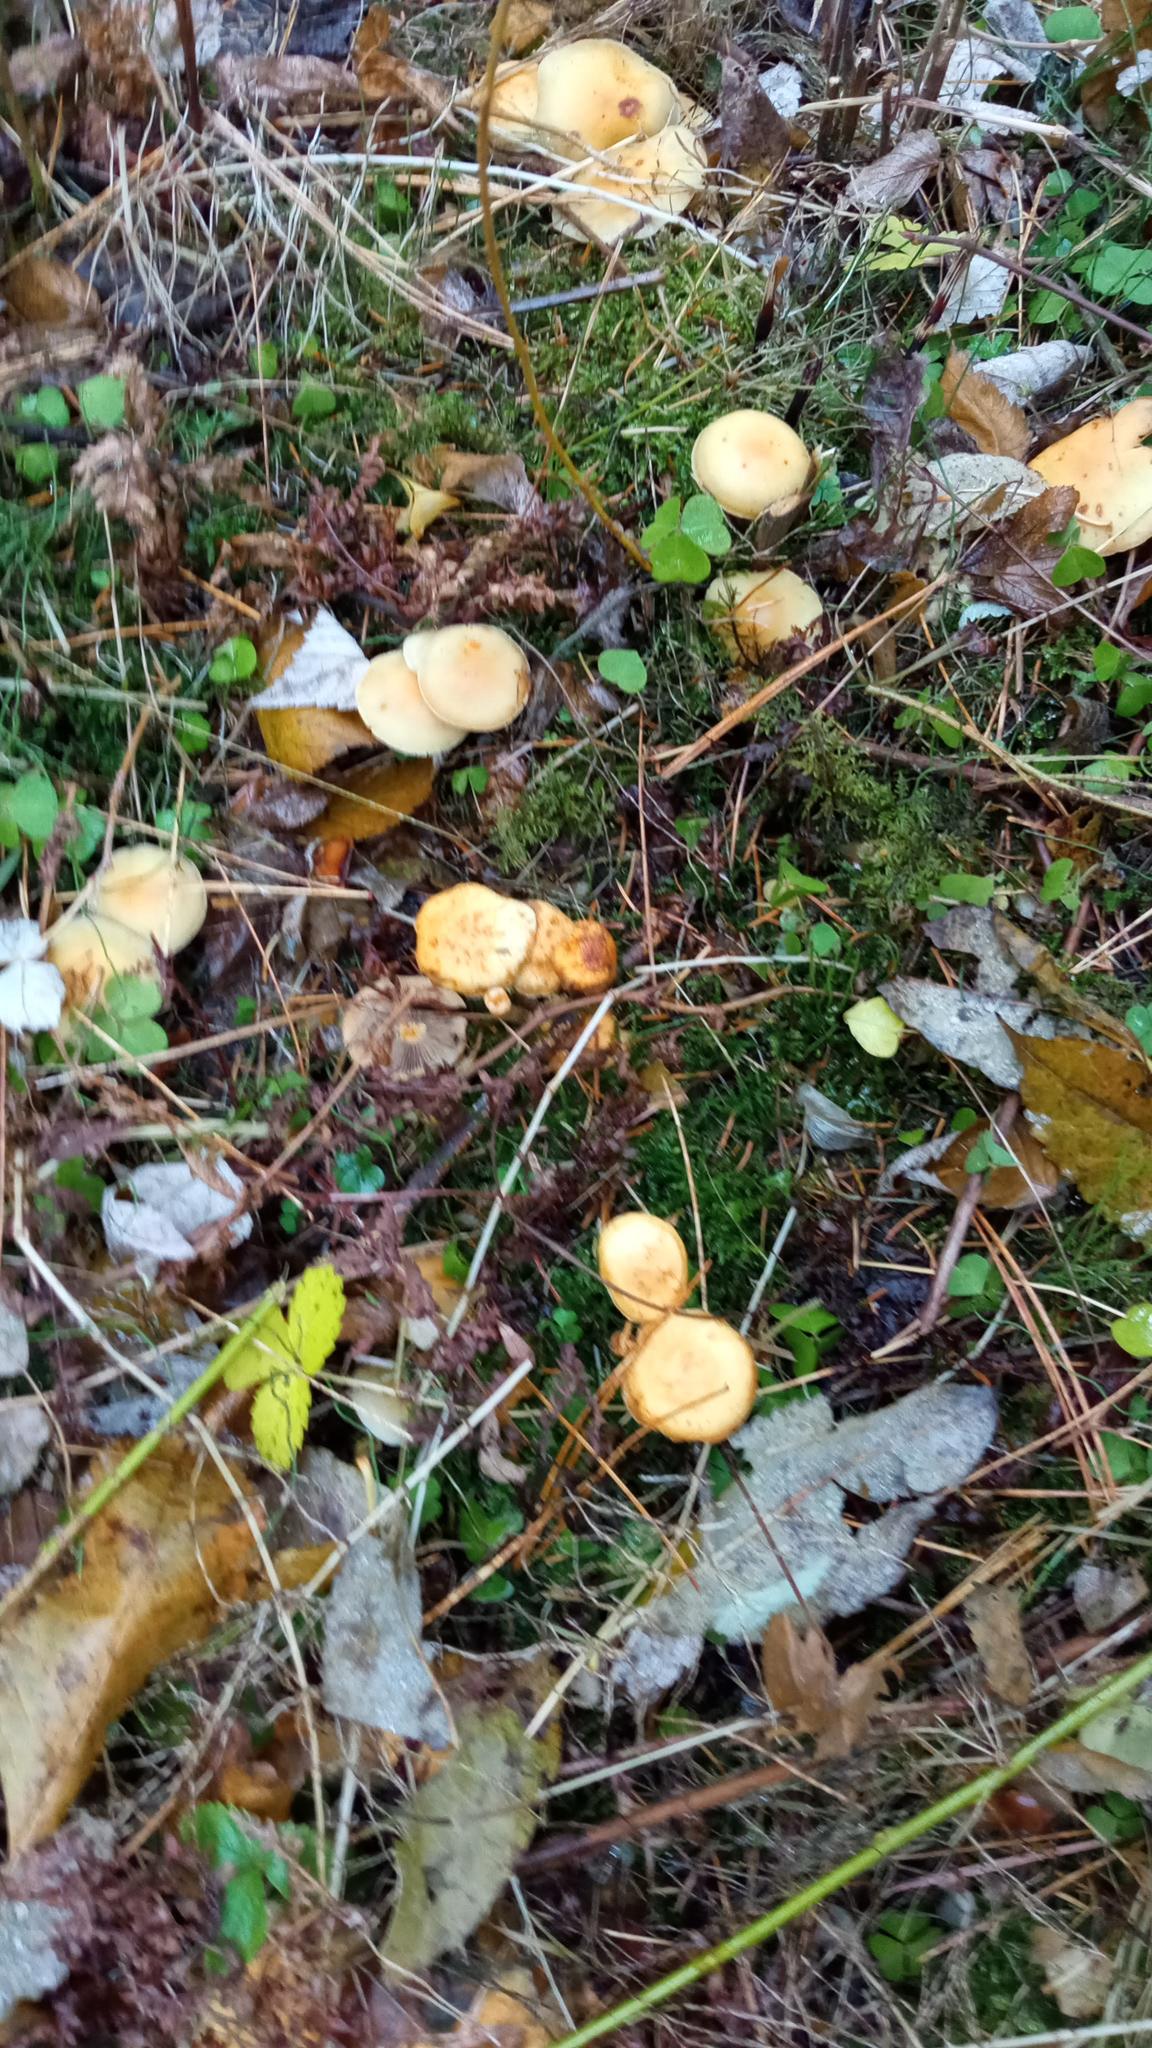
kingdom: Fungi
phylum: Basidiomycota
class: Agaricomycetes
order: Agaricales
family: Strophariaceae
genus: Hypholoma
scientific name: Hypholoma capnoides
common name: Conifer tuft
